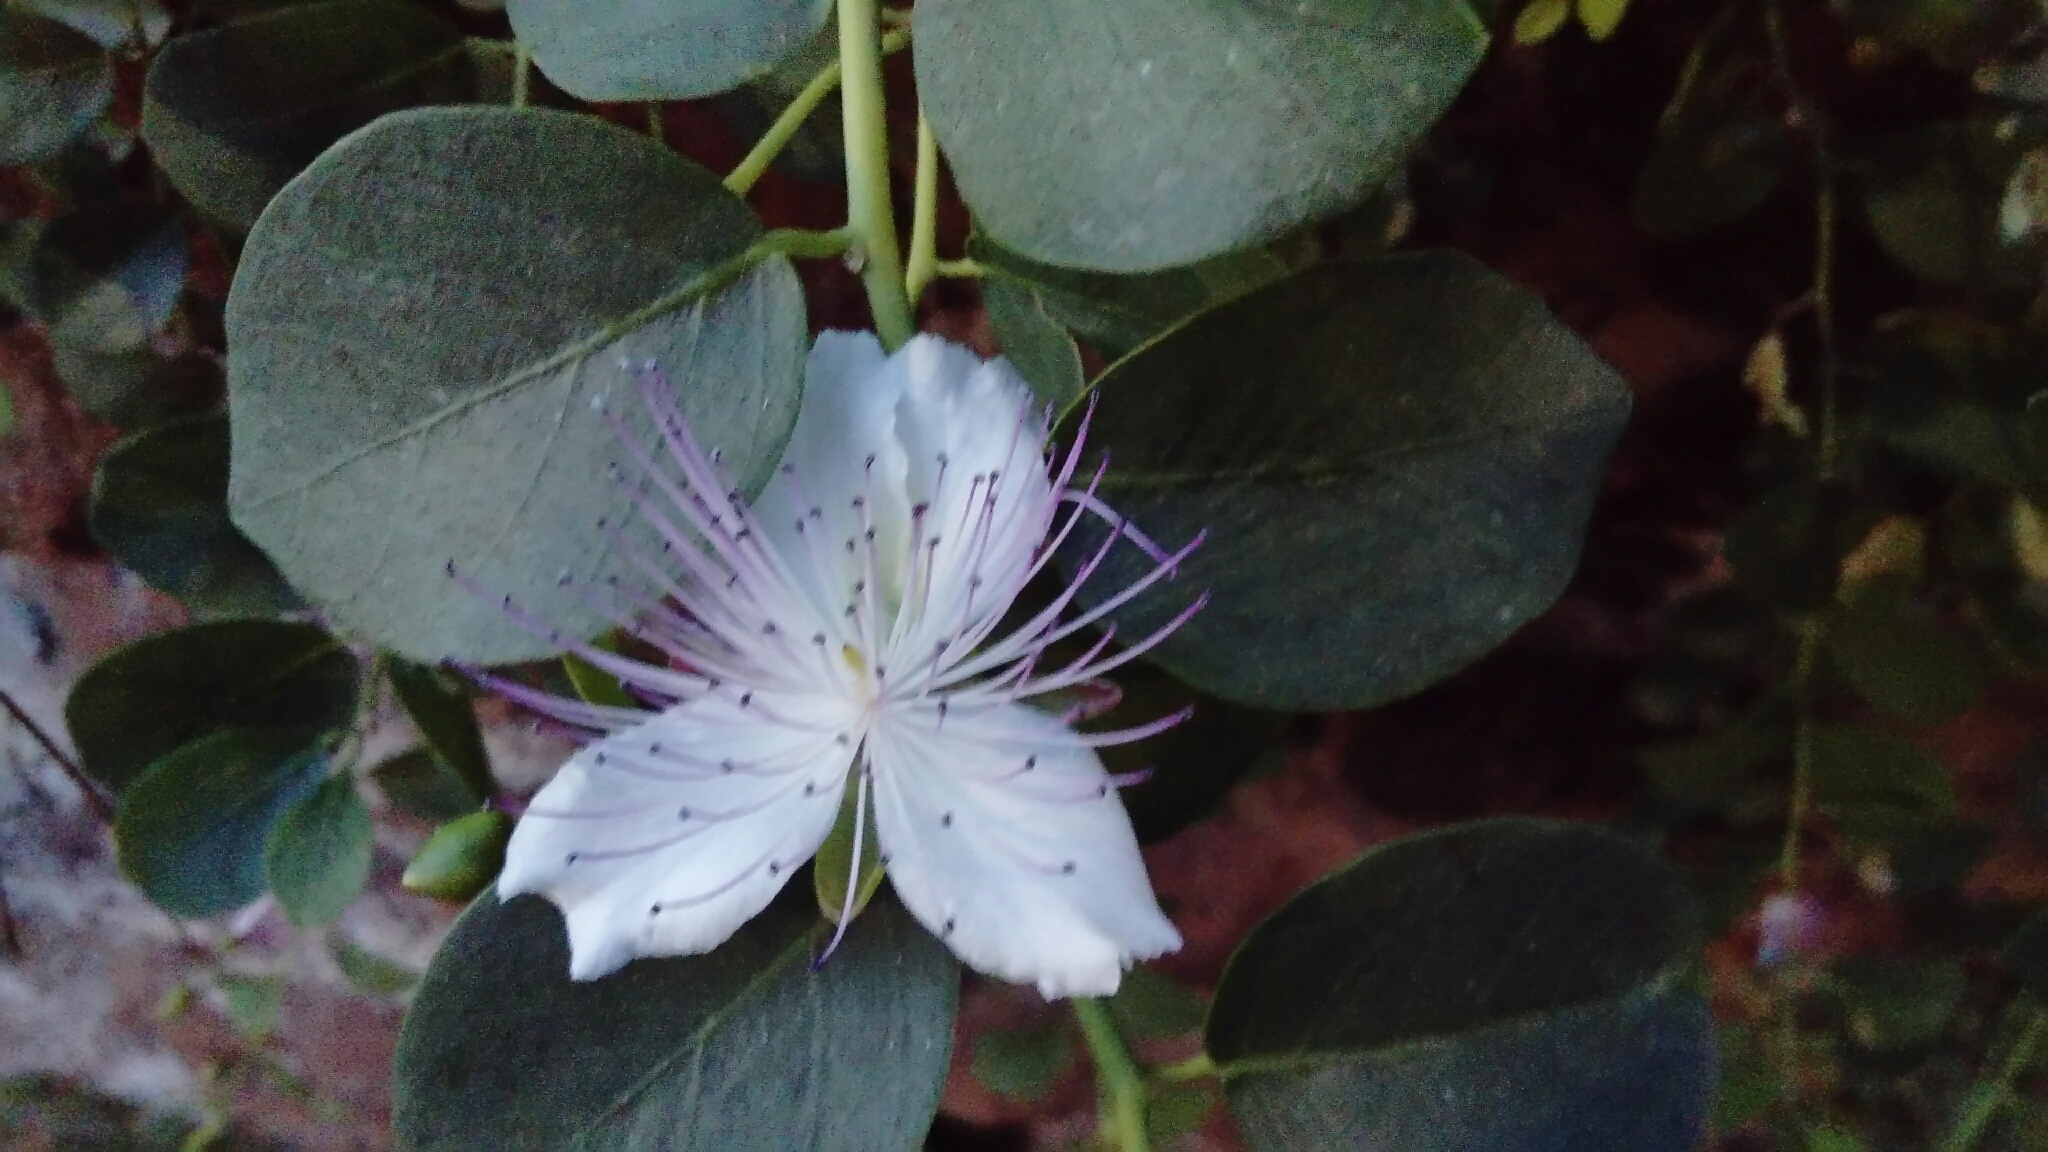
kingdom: Plantae
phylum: Tracheophyta
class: Magnoliopsida
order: Brassicales
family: Capparaceae
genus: Capparis
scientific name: Capparis spinosa
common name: Caper
